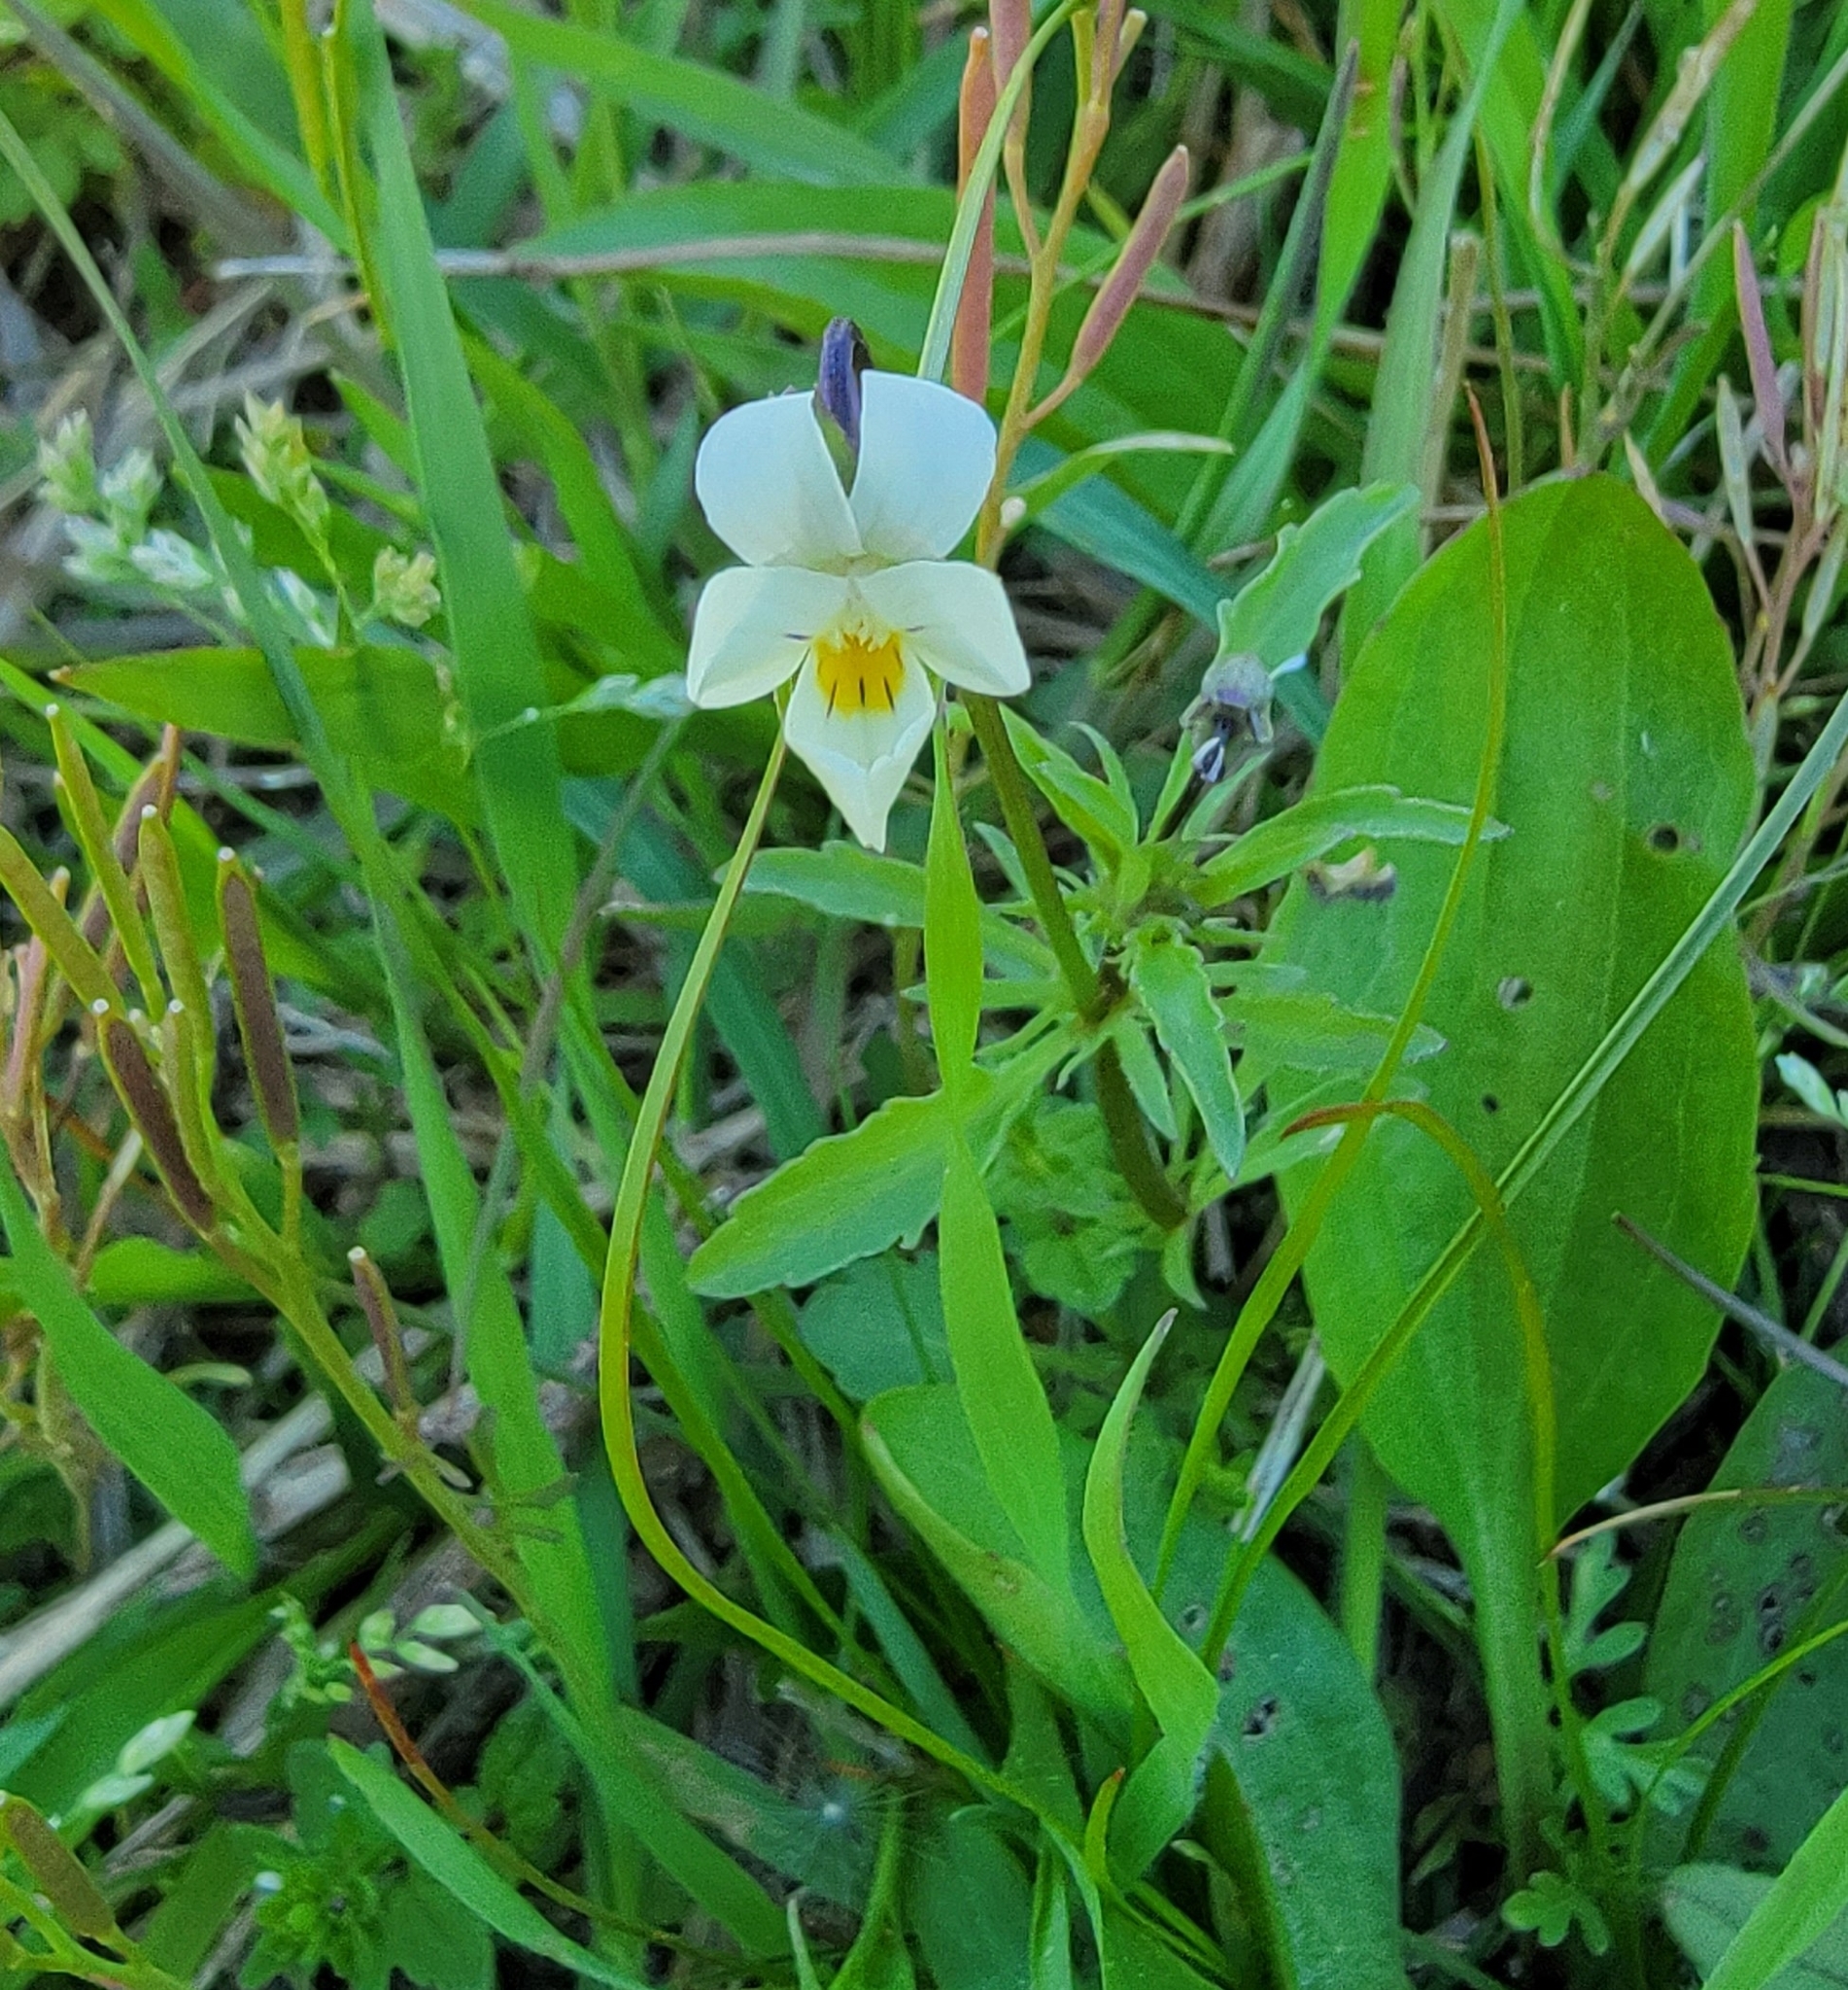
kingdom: Plantae
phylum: Tracheophyta
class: Magnoliopsida
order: Malpighiales
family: Violaceae
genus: Viola
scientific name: Viola arvensis
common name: Field pansy
